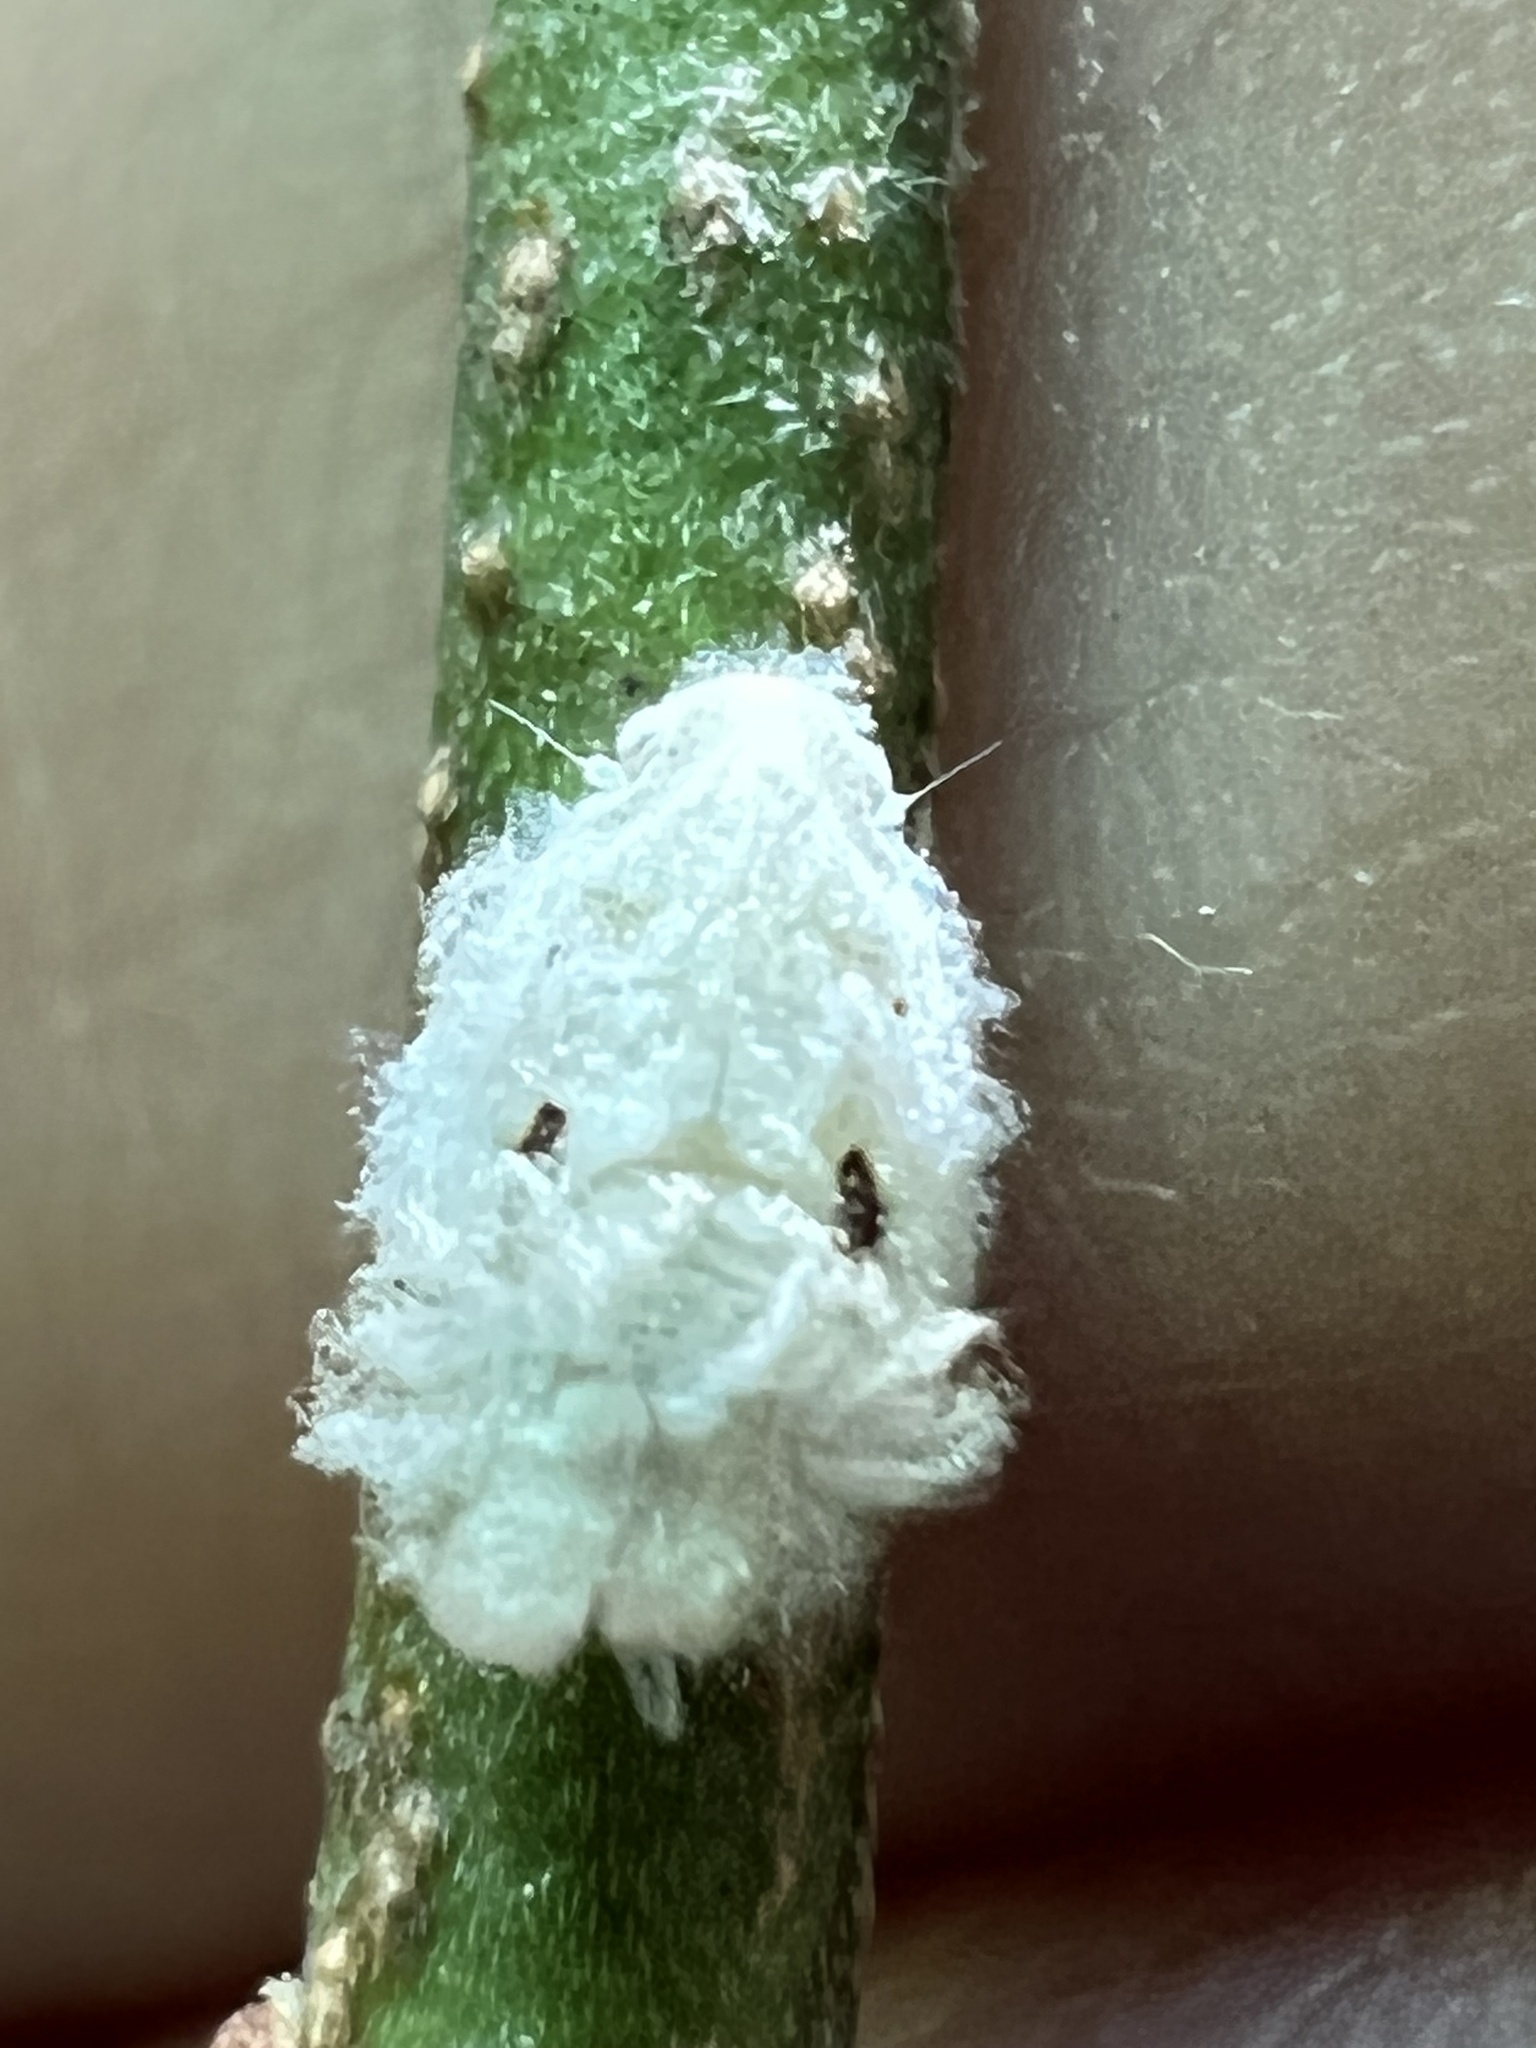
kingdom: Animalia
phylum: Arthropoda
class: Insecta
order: Hemiptera
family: Flatidae
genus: Flatormenis
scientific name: Flatormenis proxima
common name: Northern flatid planthopper
